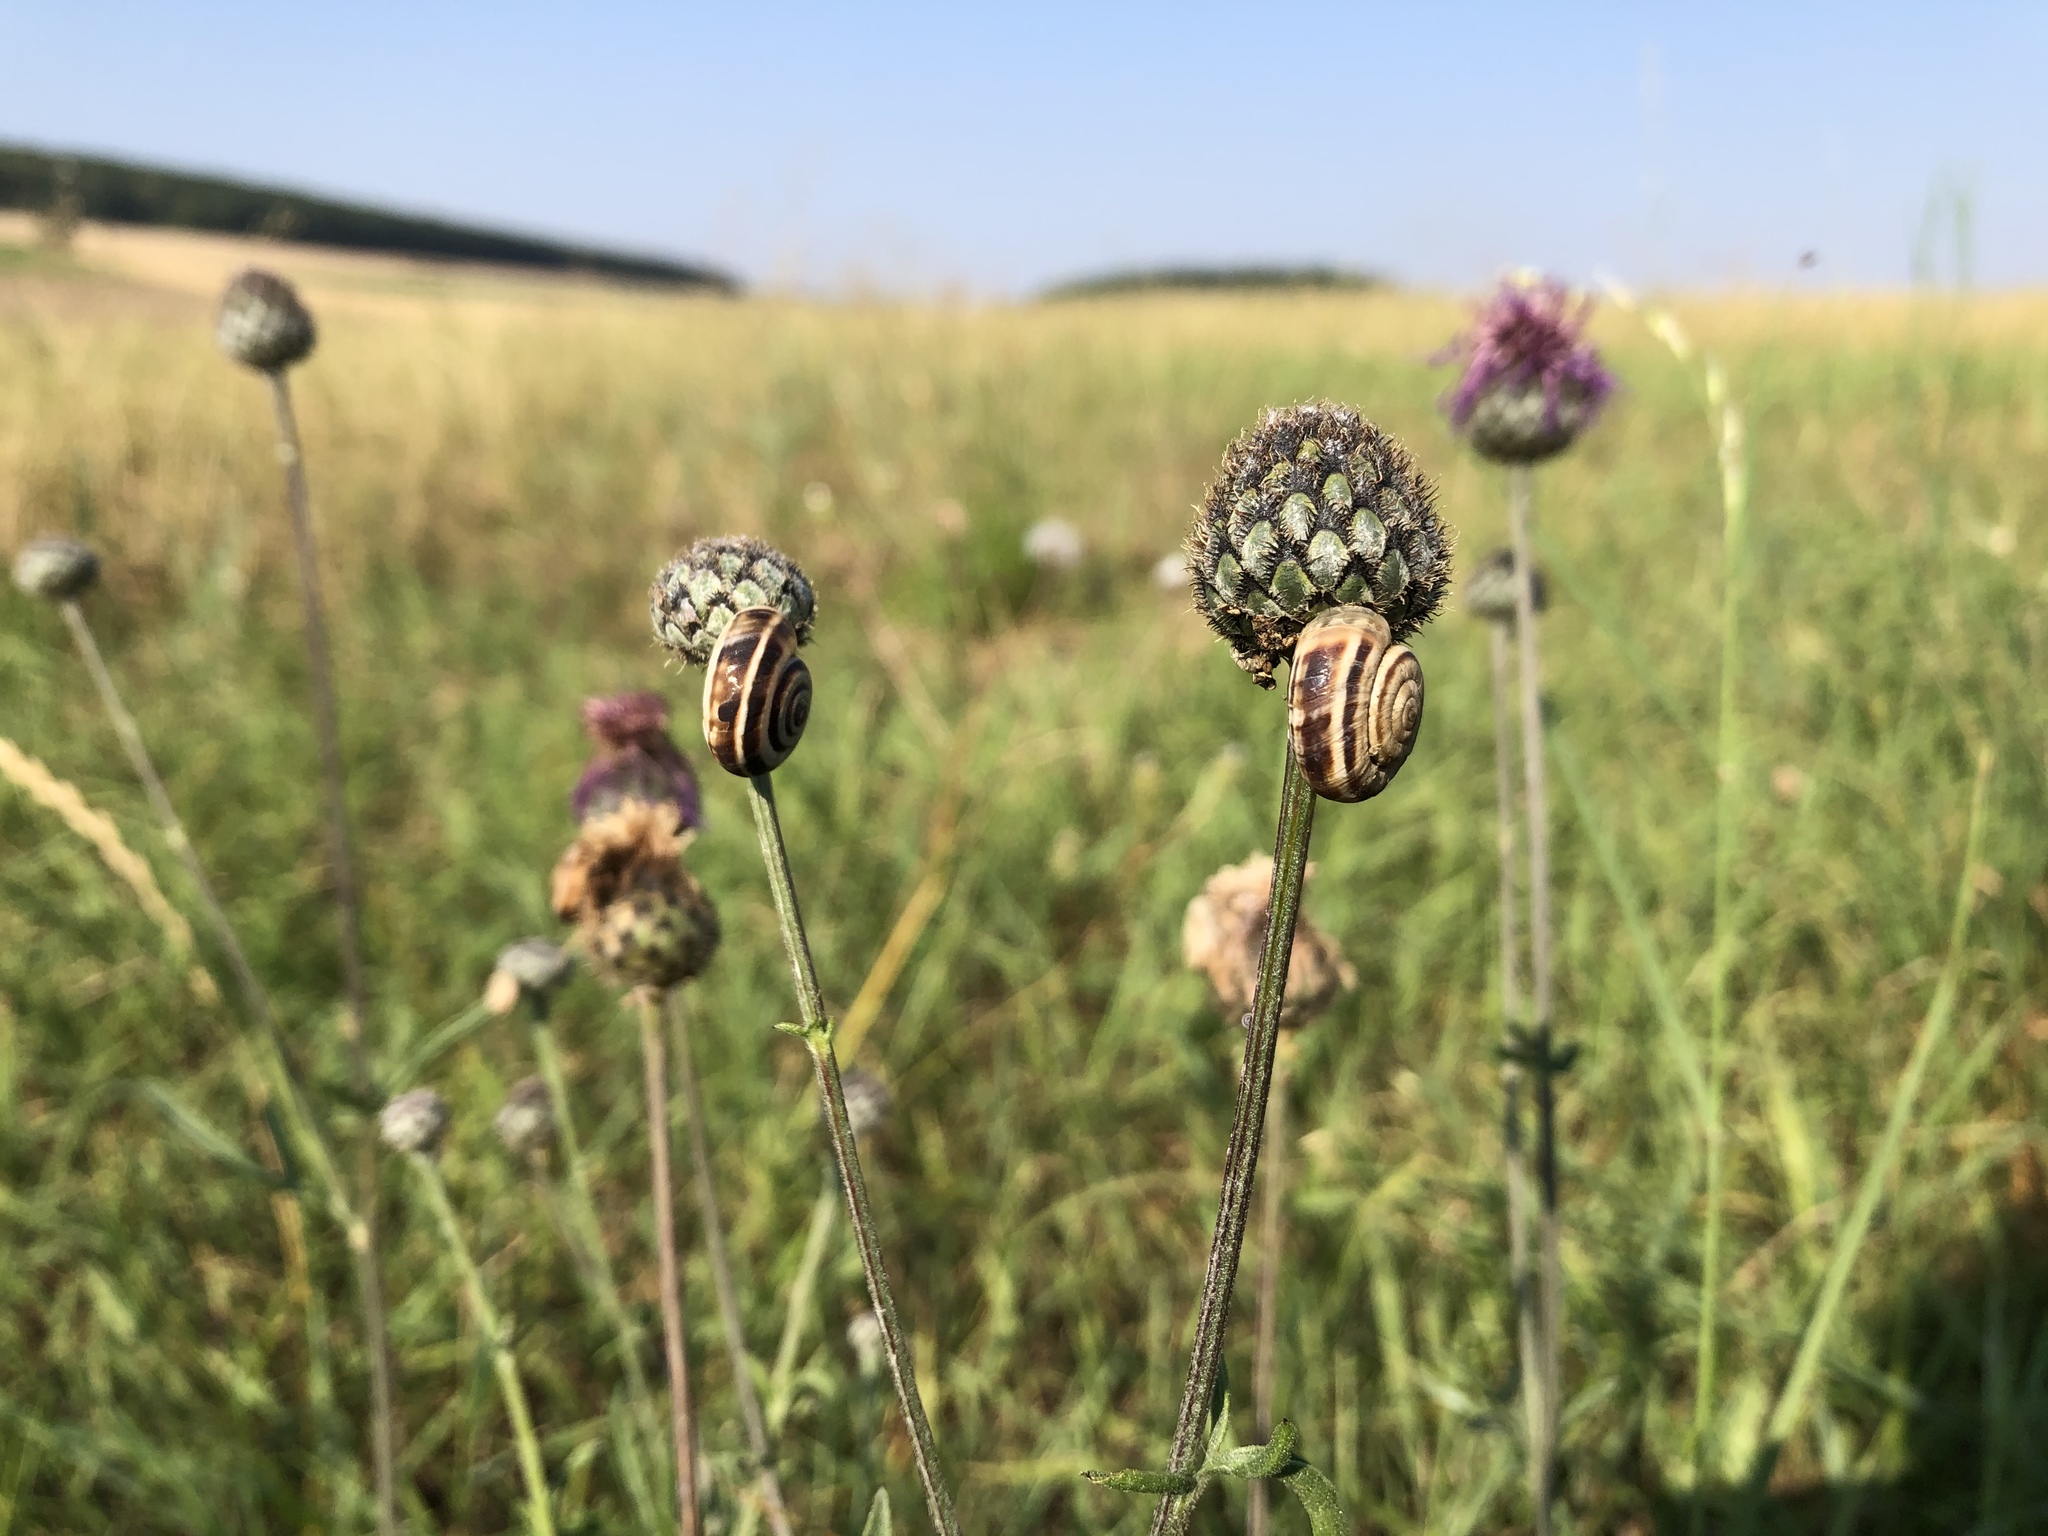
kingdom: Animalia
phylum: Mollusca
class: Gastropoda
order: Stylommatophora
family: Geomitridae
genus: Xerolenta
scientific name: Xerolenta obvia
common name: White heath snail
